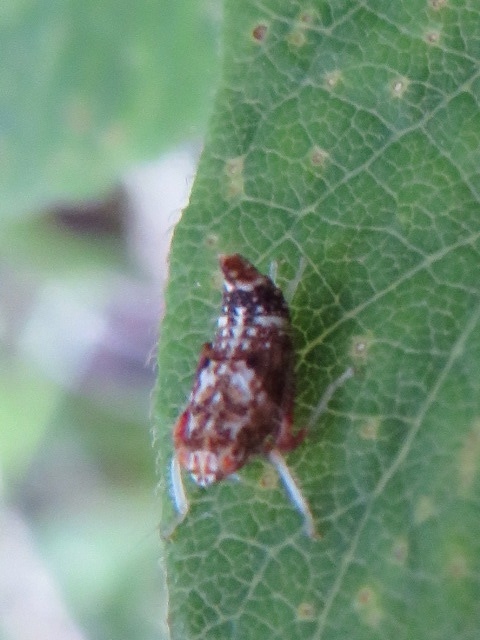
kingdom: Animalia
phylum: Arthropoda
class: Insecta
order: Hemiptera
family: Cicadellidae
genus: Orientus
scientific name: Orientus ishidae
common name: Japanese leafhopper
